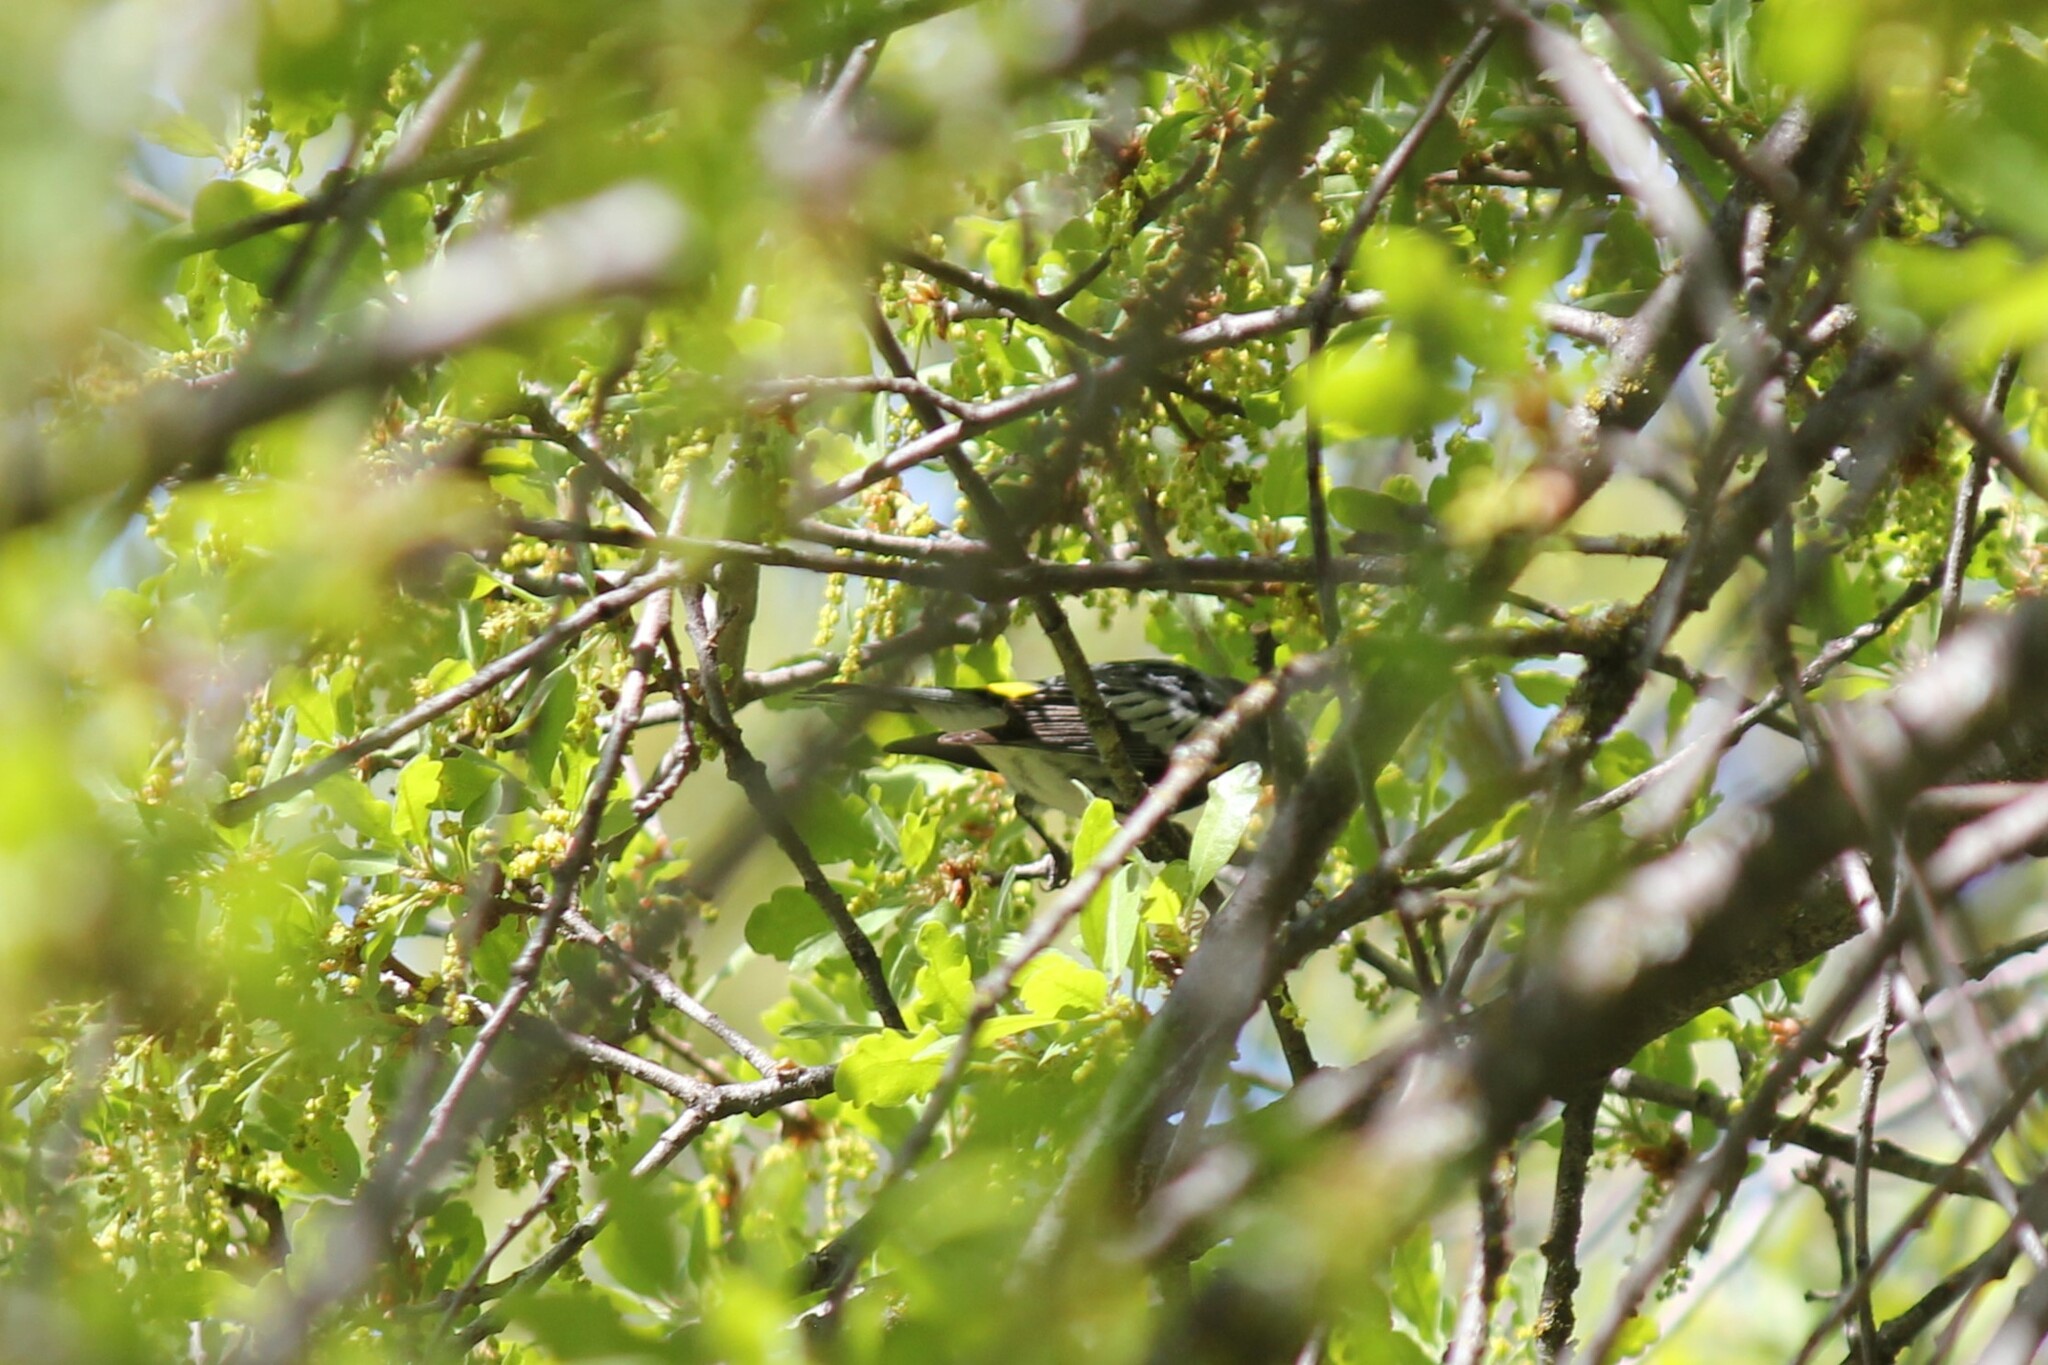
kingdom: Animalia
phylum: Chordata
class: Aves
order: Passeriformes
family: Parulidae
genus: Setophaga
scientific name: Setophaga coronata
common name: Myrtle warbler
